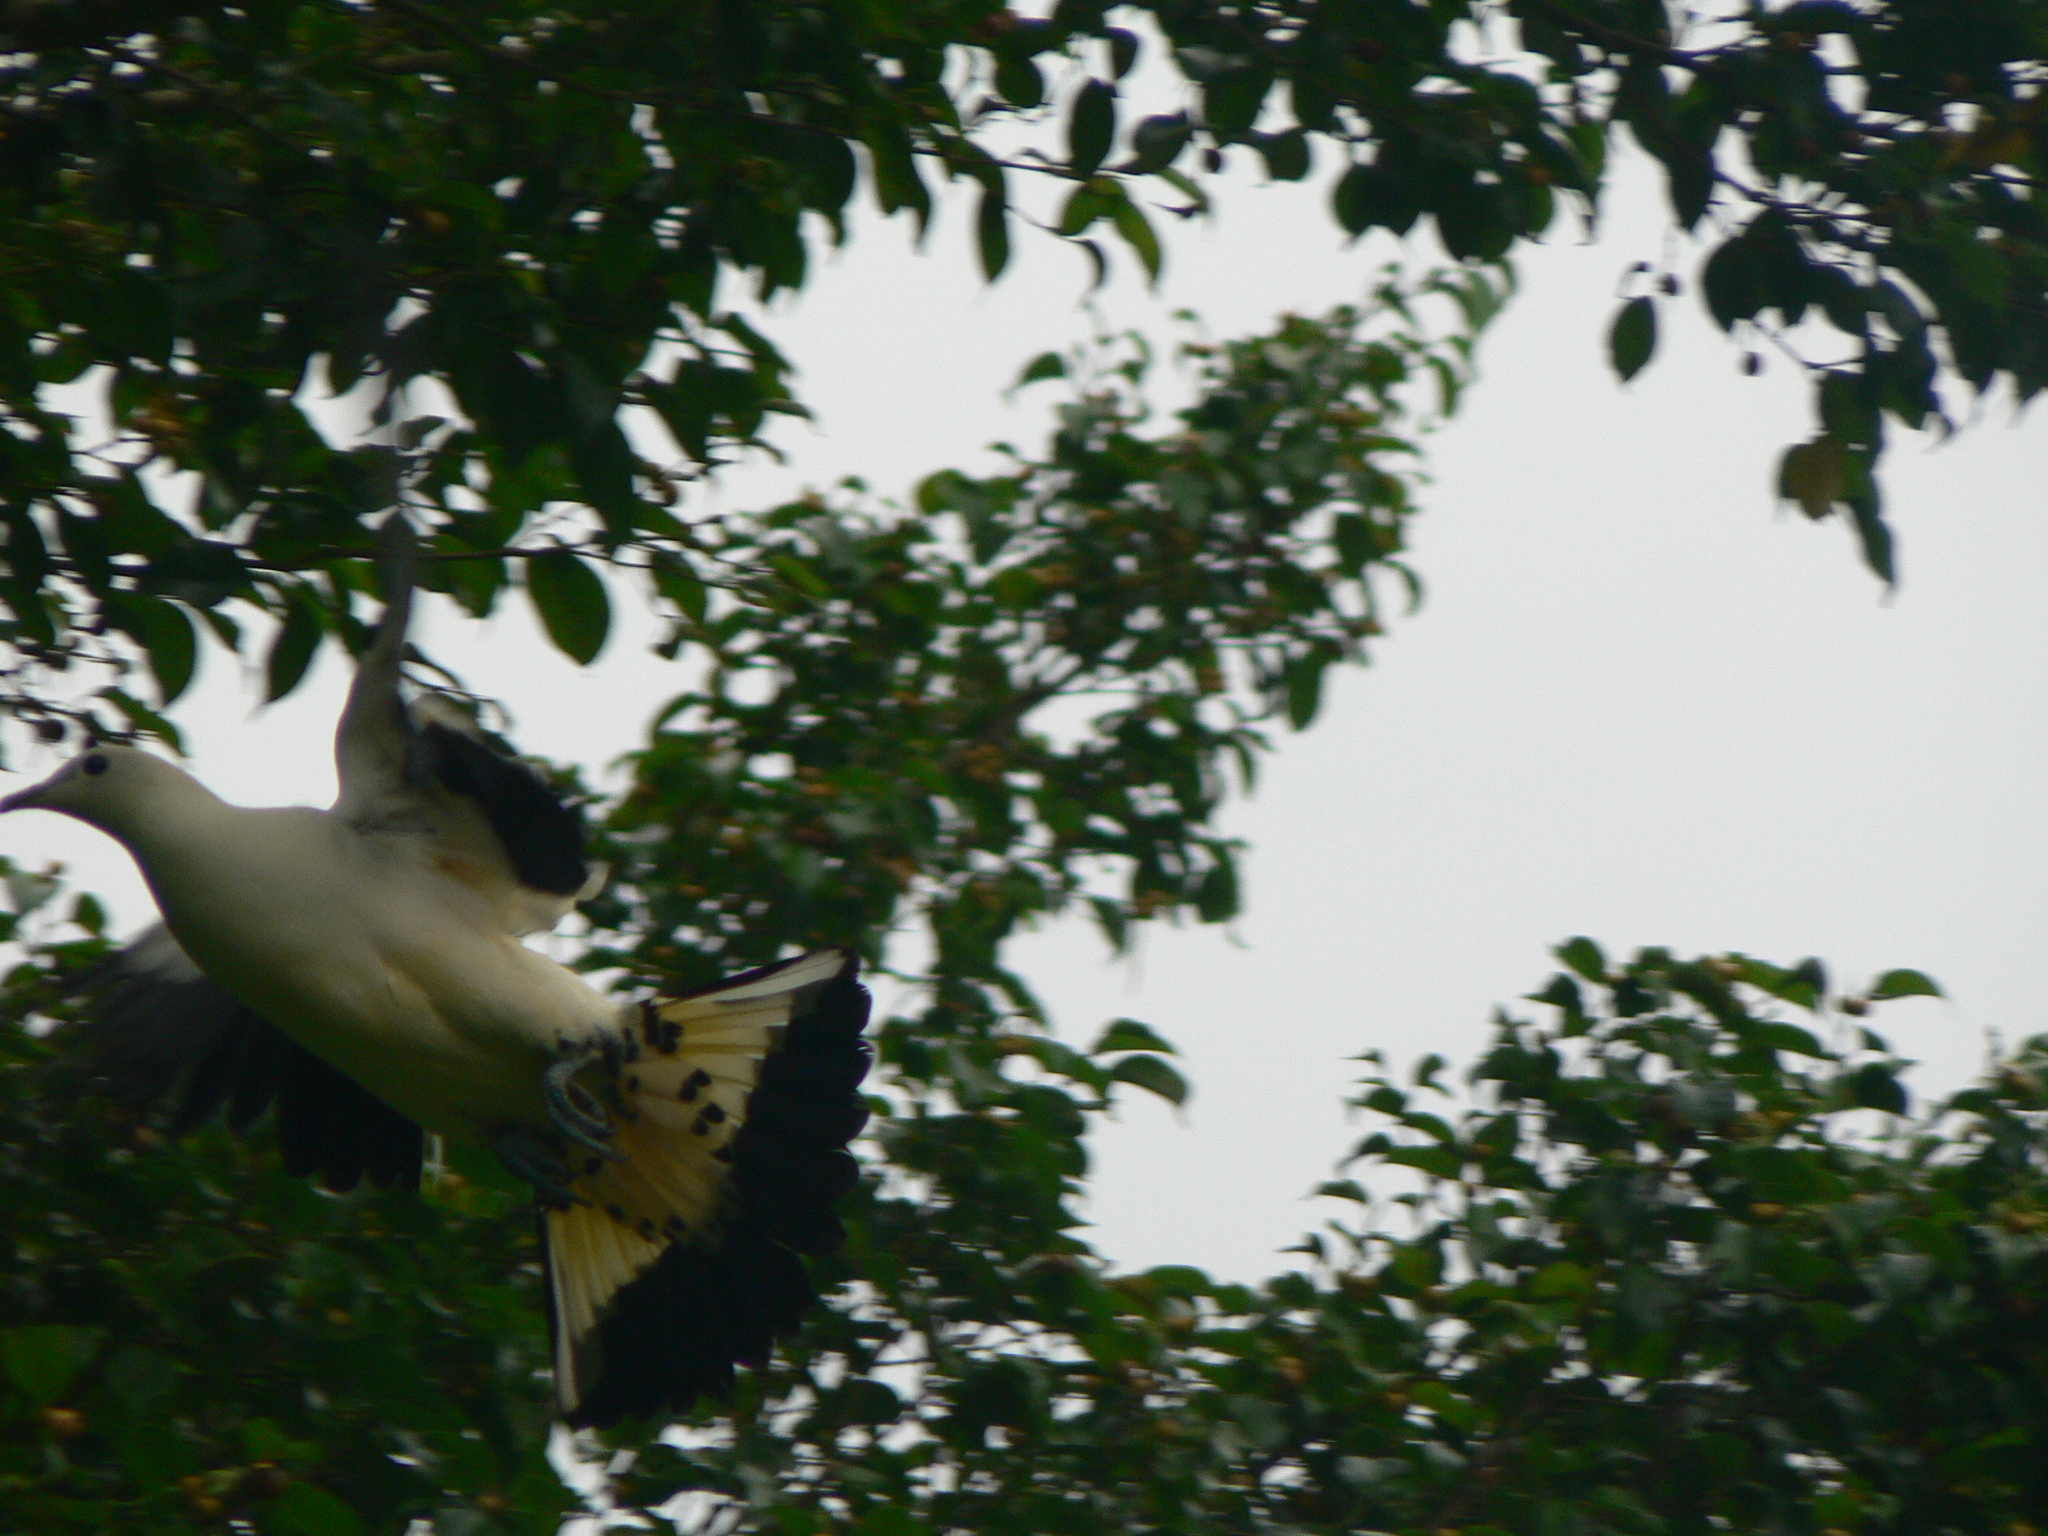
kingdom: Animalia
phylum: Chordata
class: Aves
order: Columbiformes
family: Columbidae
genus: Ducula
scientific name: Ducula spilorrhoa
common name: Torresian imperial pigeon
